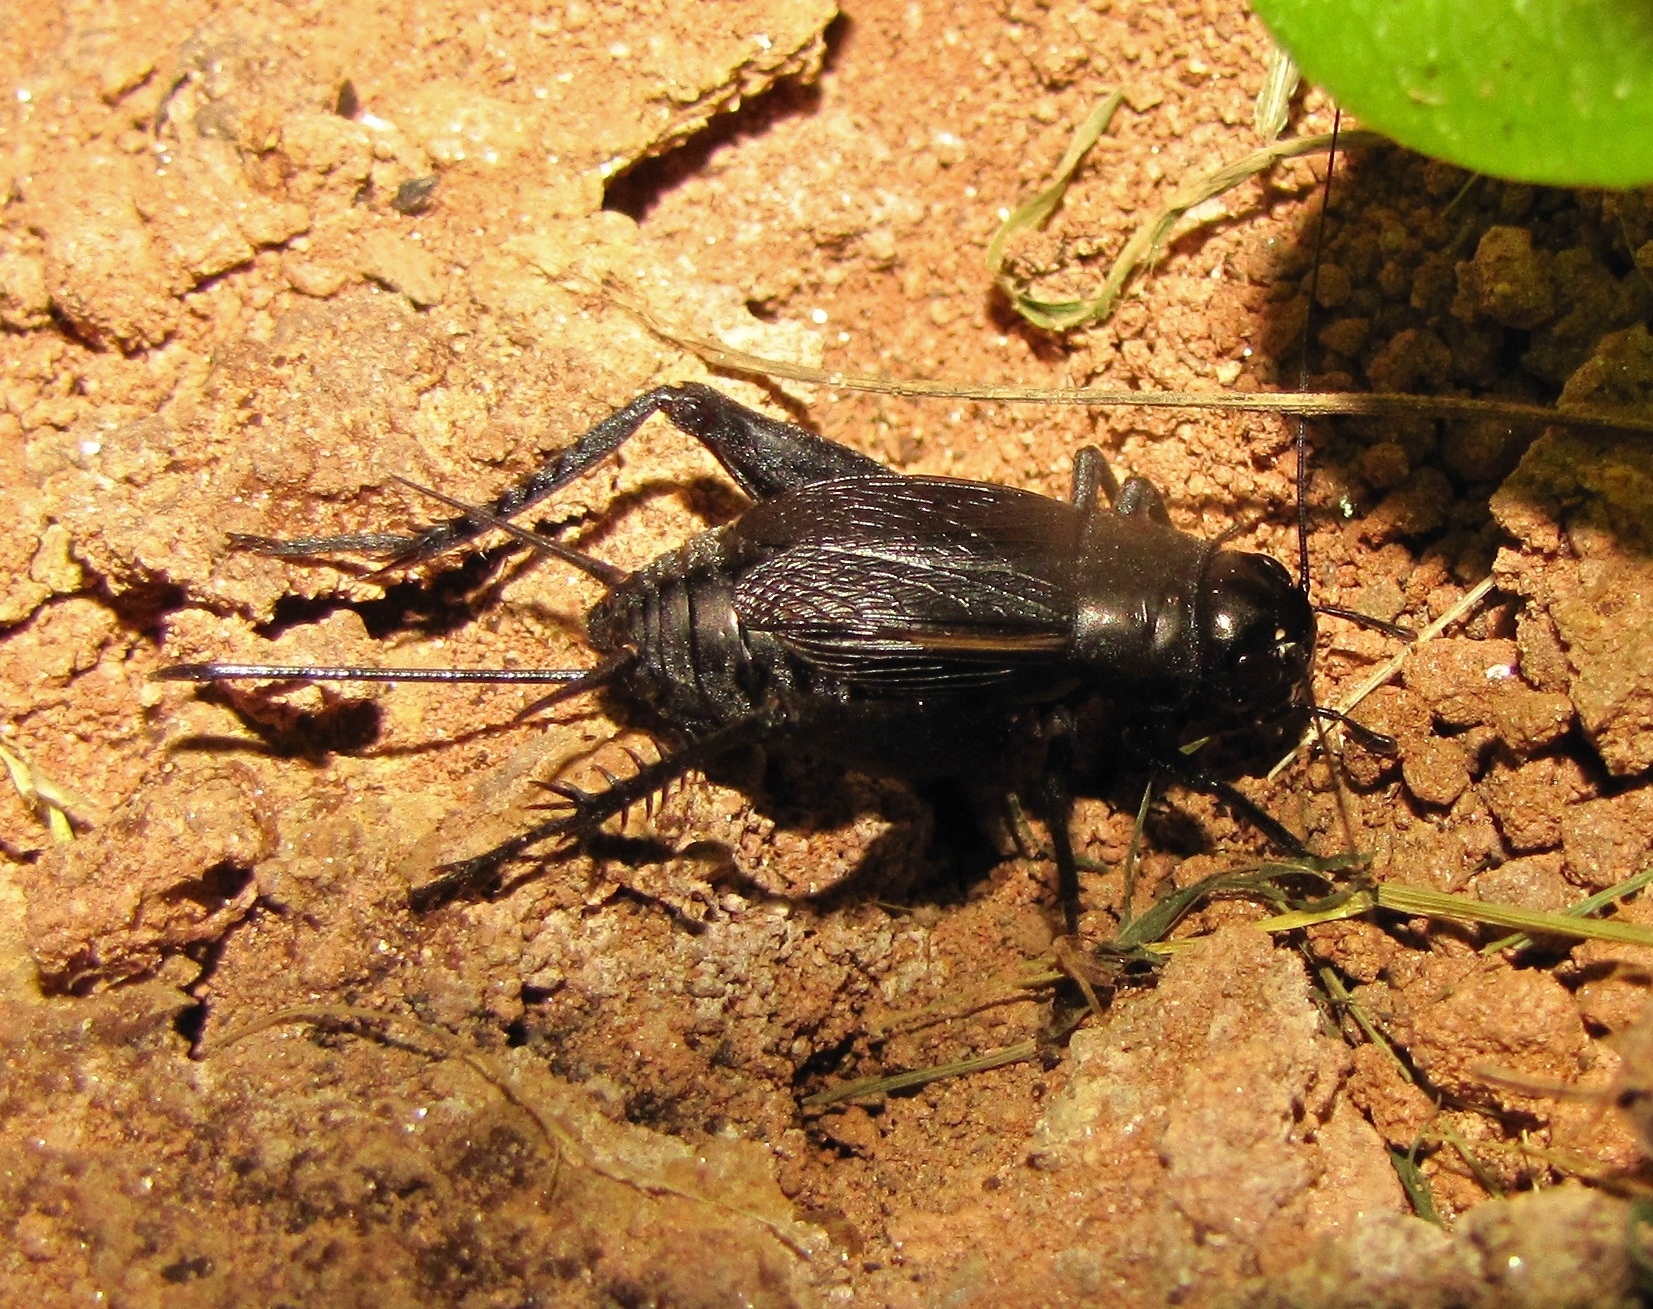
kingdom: Animalia
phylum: Arthropoda
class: Insecta
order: Orthoptera
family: Gryllidae
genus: Gryllus
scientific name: Gryllus pennsylvanicus
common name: Fall field cricket
